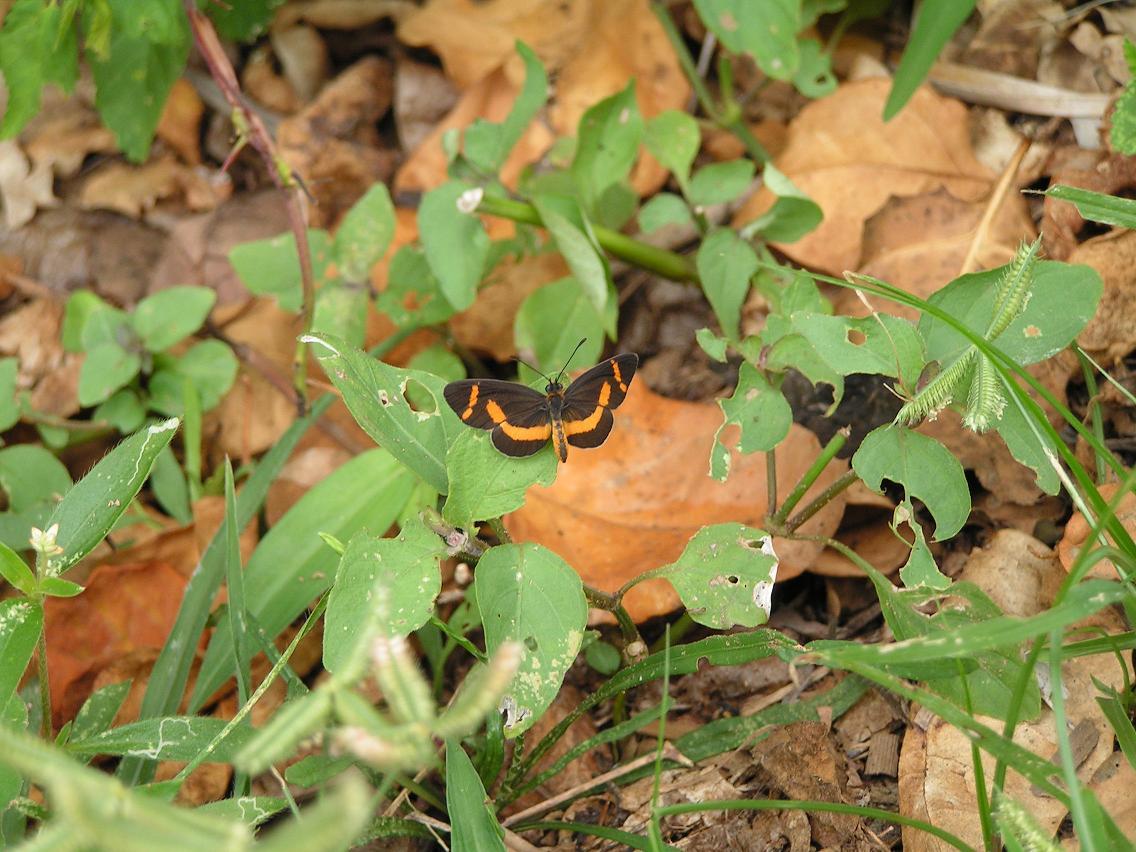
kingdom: Animalia
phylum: Arthropoda
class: Insecta
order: Lepidoptera
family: Nymphalidae
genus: Microtia
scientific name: Microtia elva
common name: Elf
